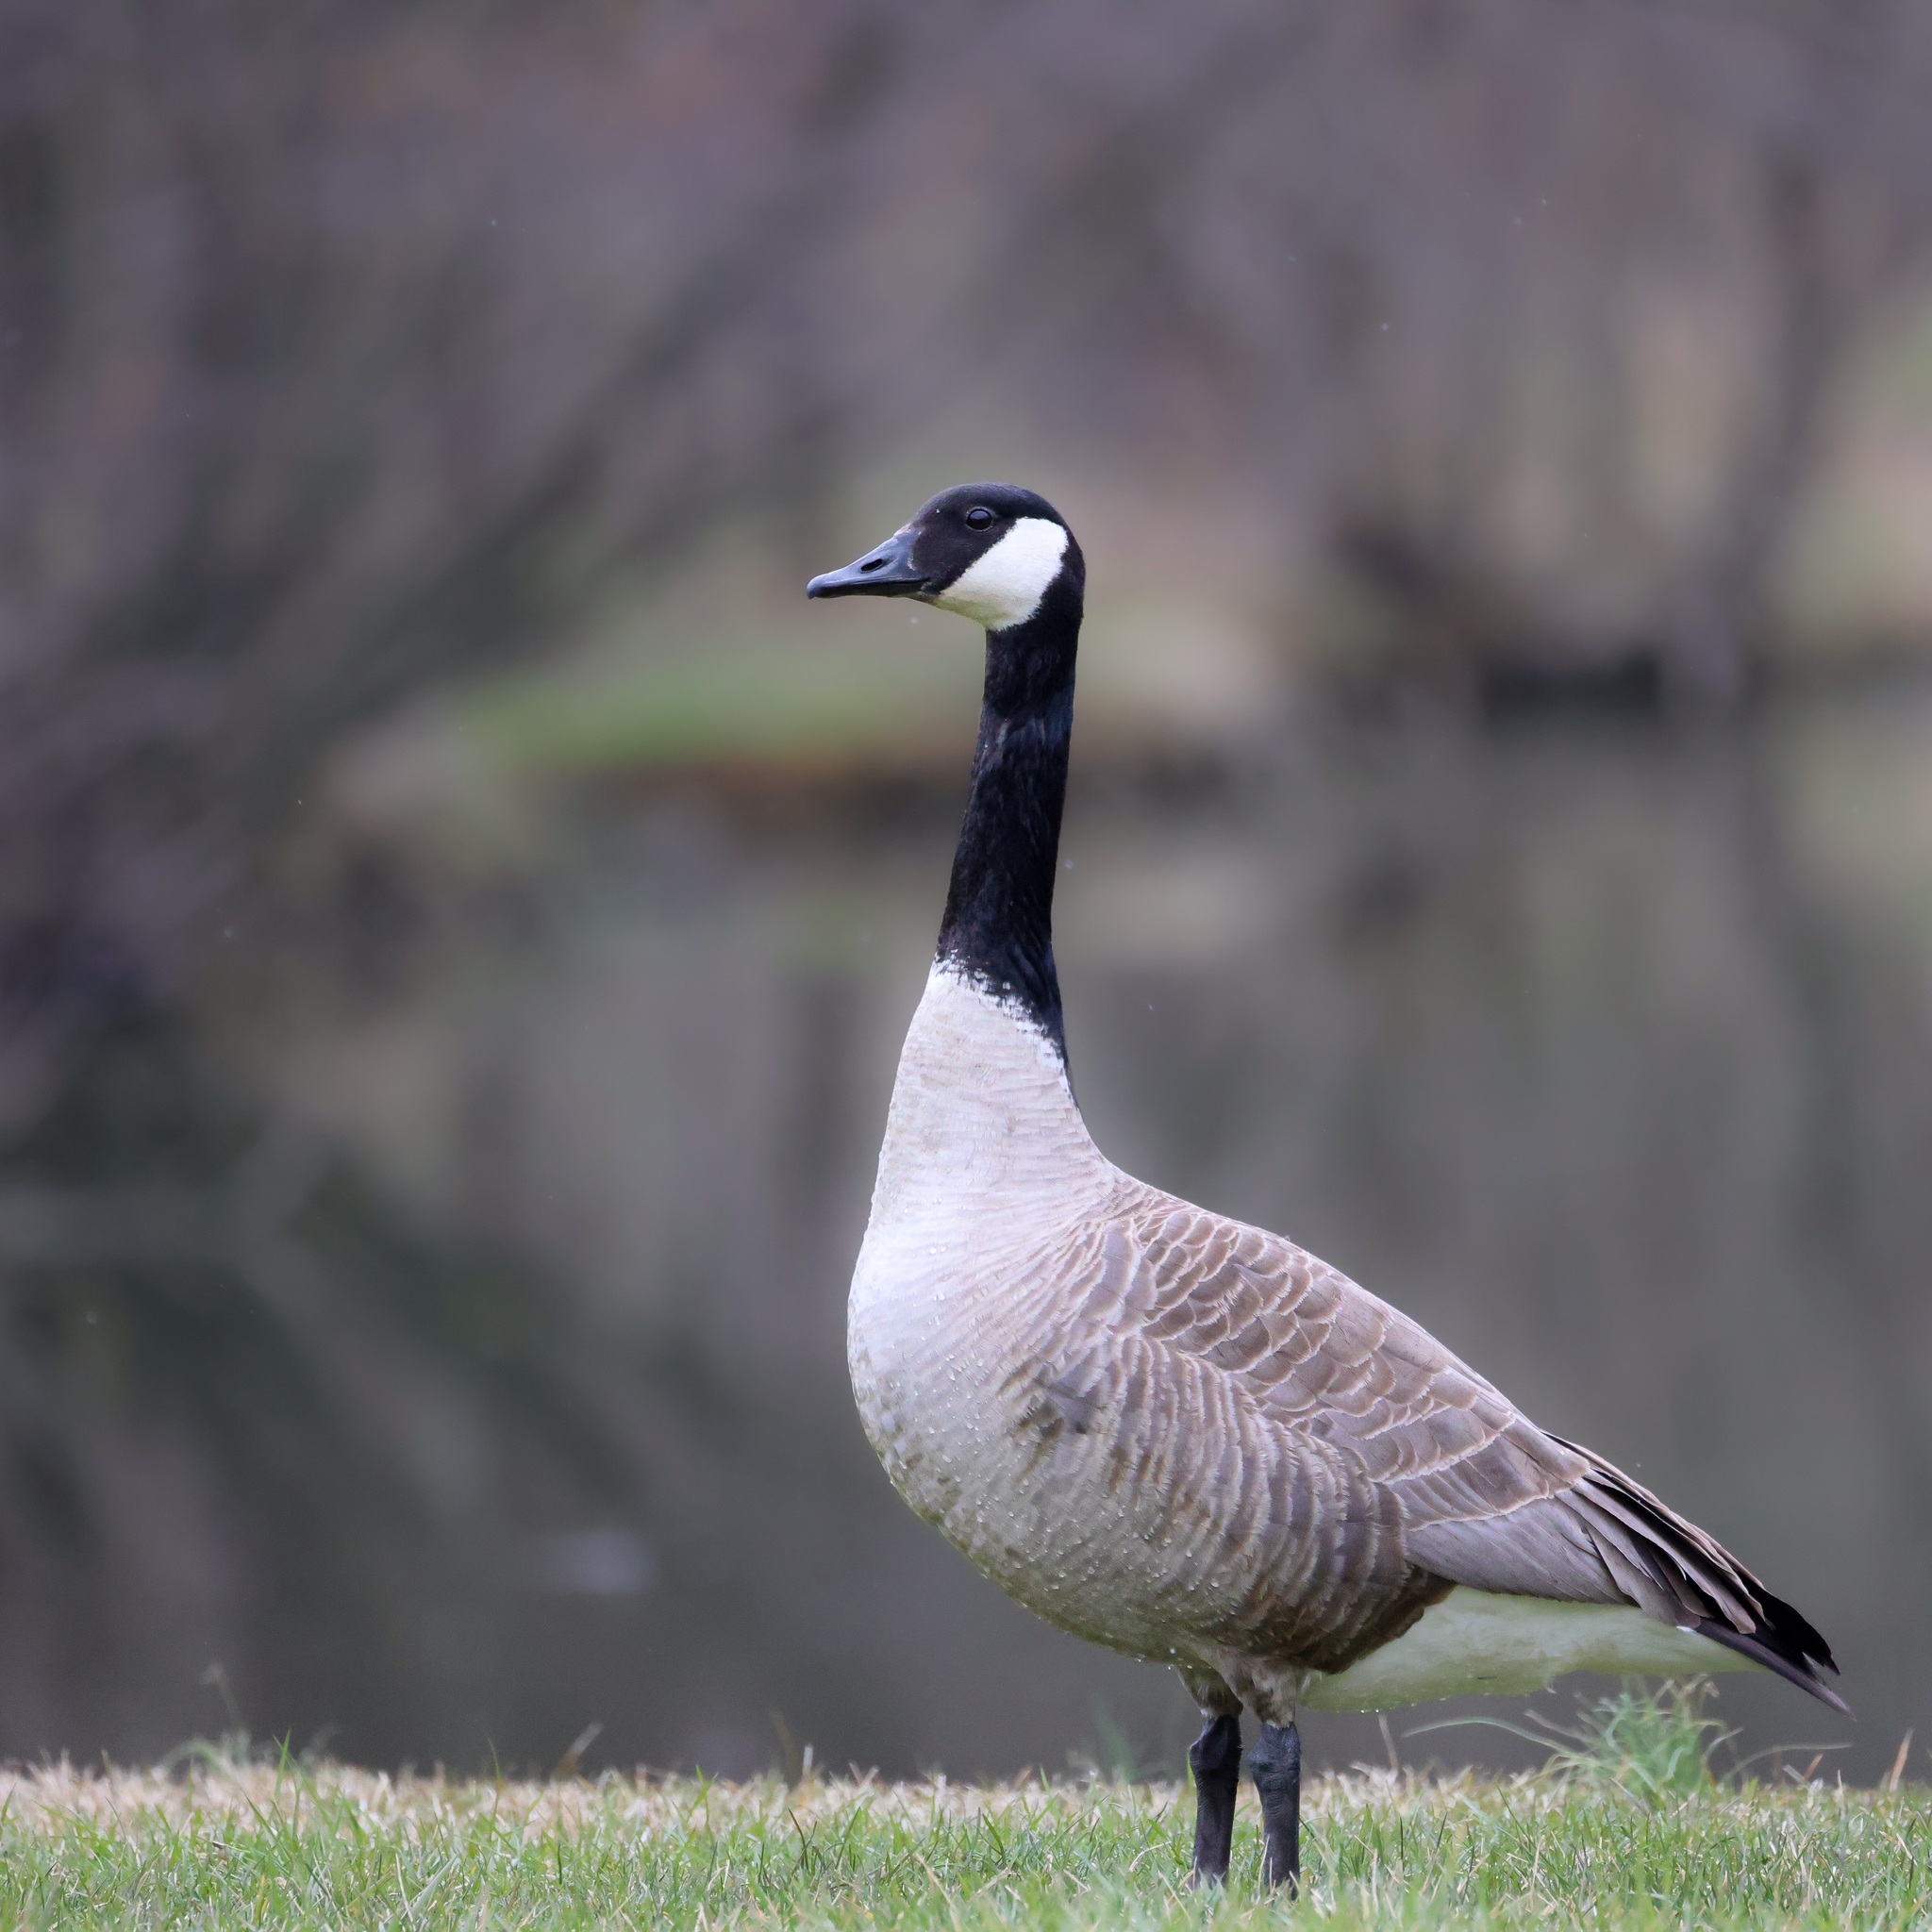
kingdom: Animalia
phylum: Chordata
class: Aves
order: Anseriformes
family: Anatidae
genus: Branta
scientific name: Branta canadensis
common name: Canada goose
